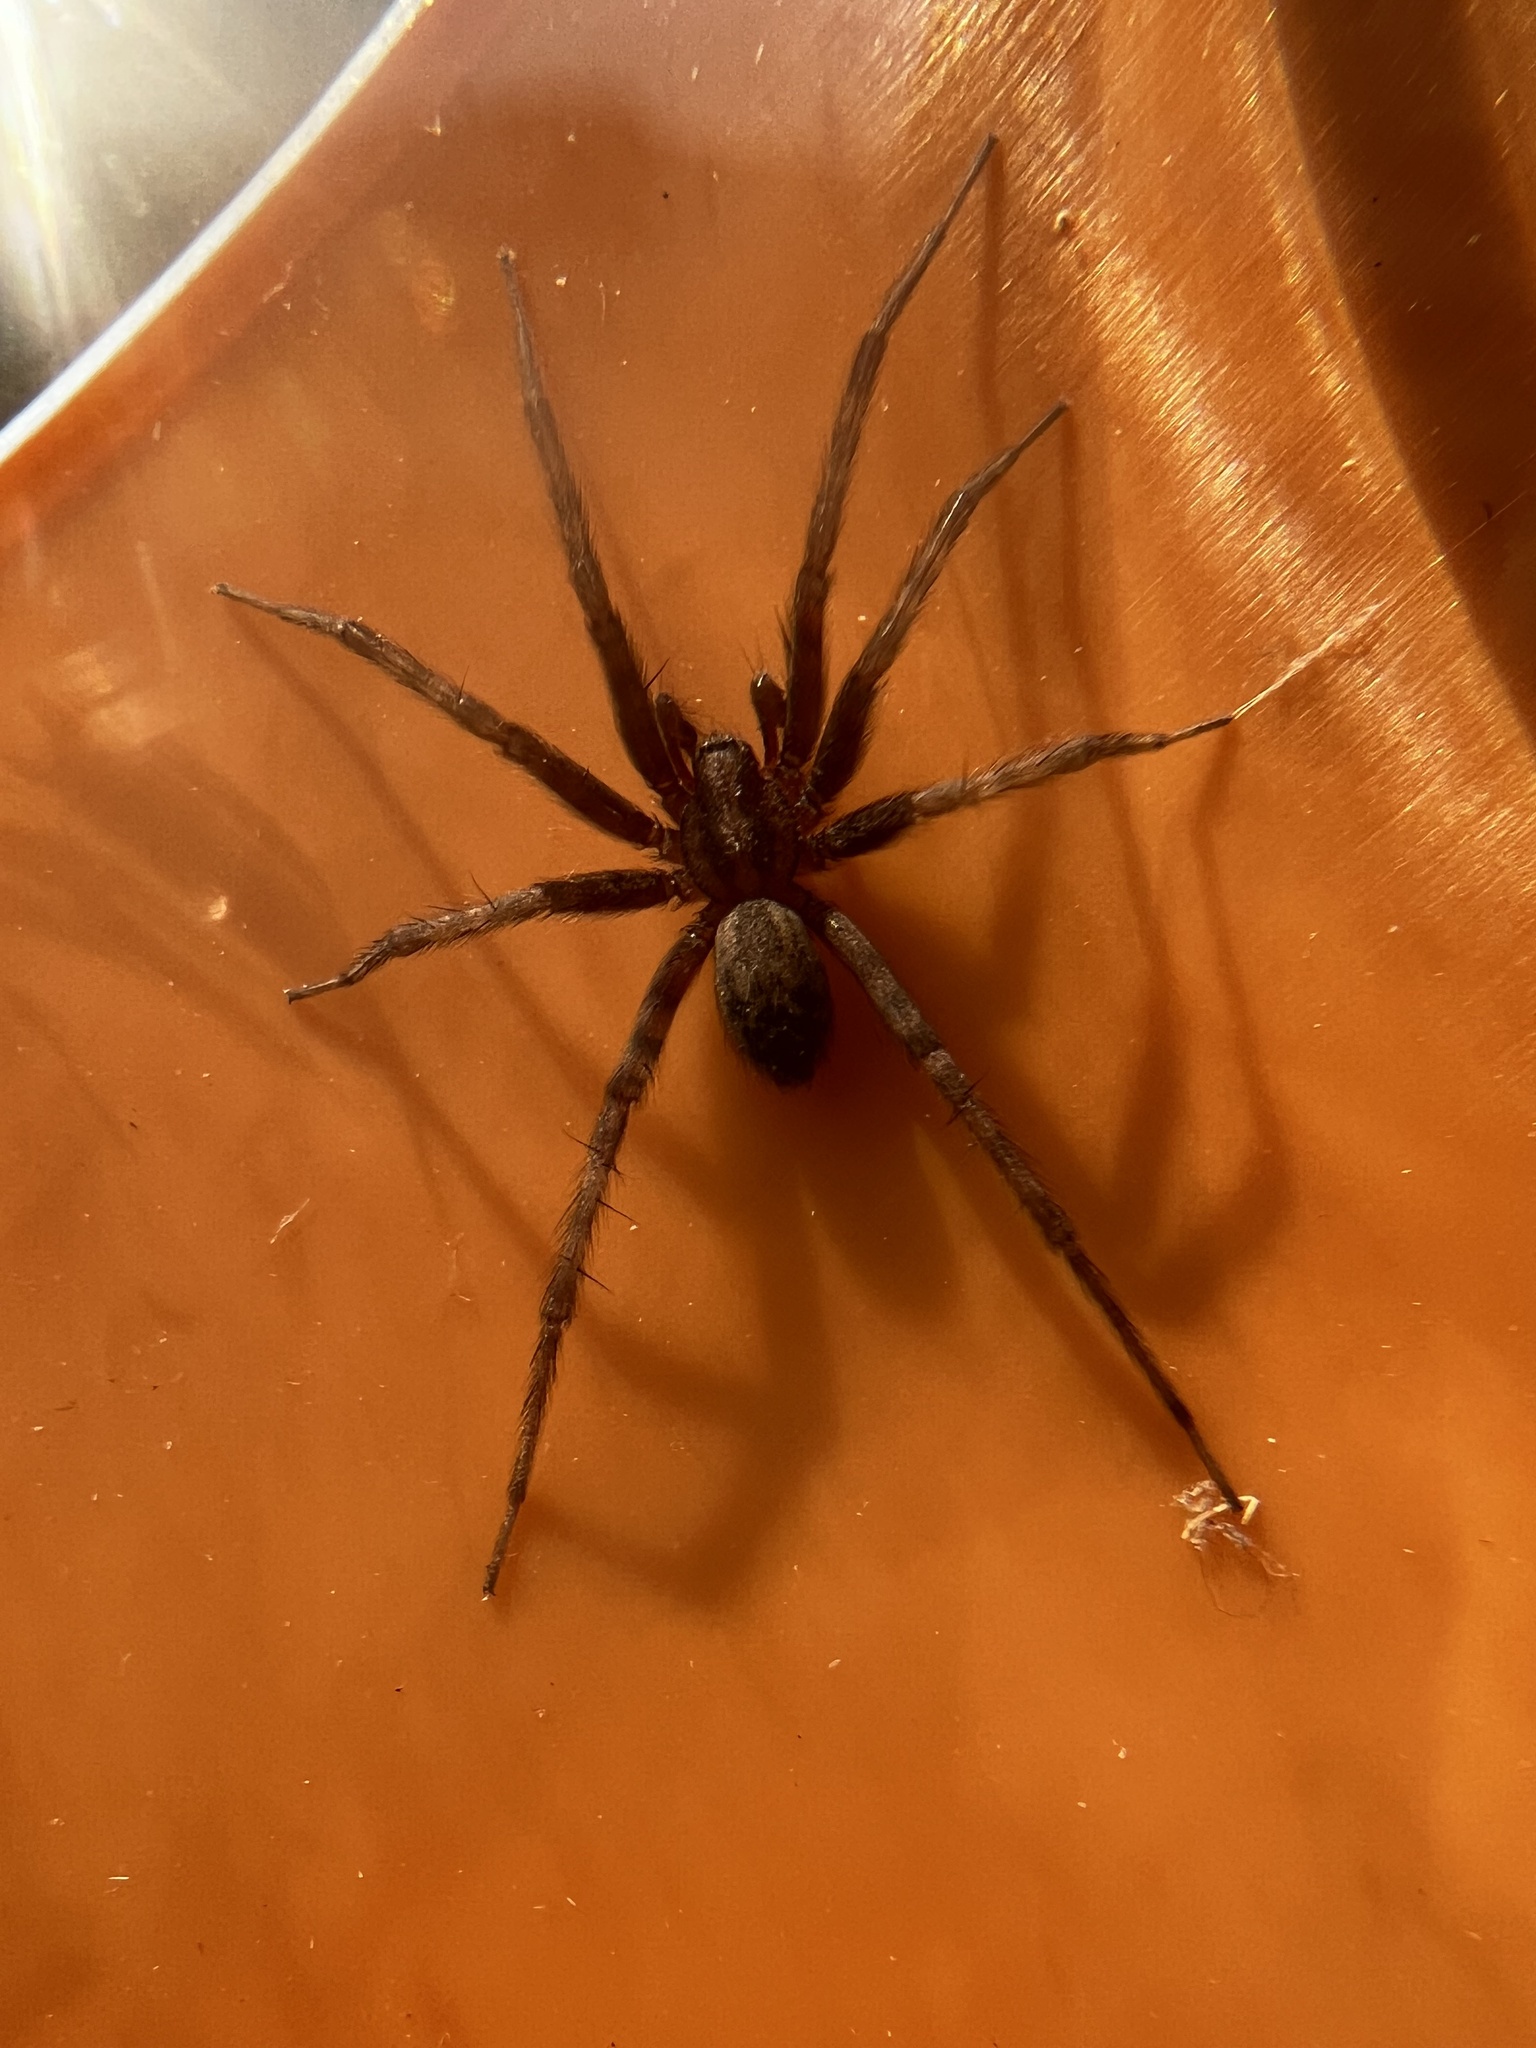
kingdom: Animalia
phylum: Arthropoda
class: Arachnida
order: Araneae
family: Agelenidae
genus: Tegenaria
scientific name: Tegenaria domestica
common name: Barn funnel weaver
